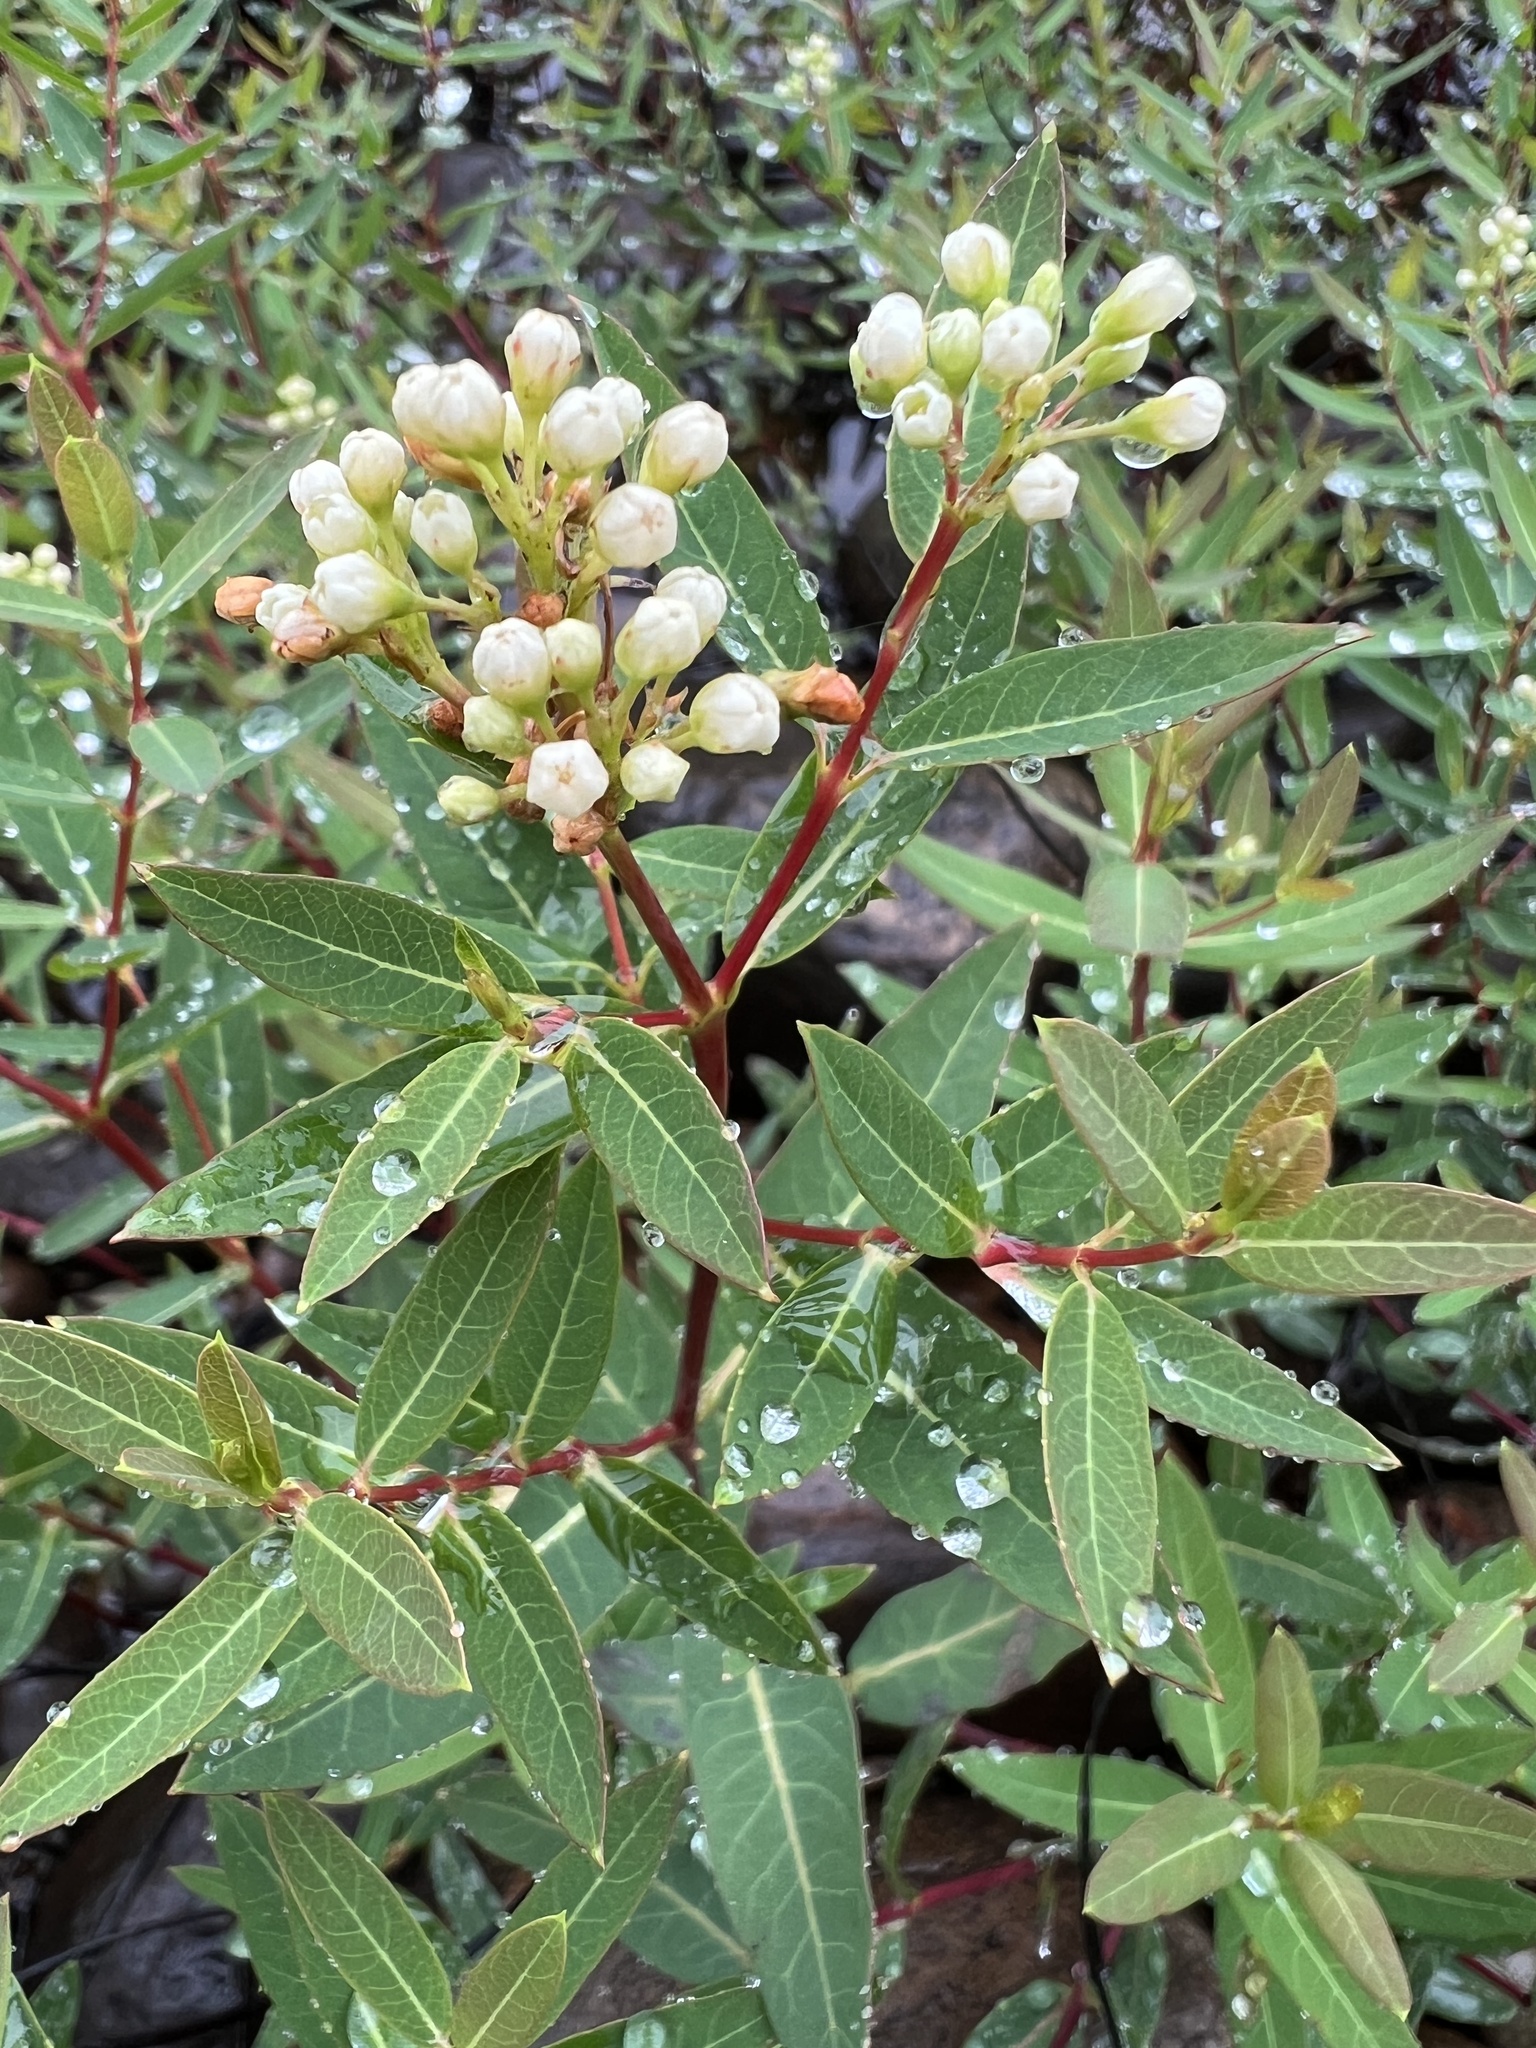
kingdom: Plantae
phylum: Tracheophyta
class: Magnoliopsida
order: Gentianales
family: Apocynaceae
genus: Apocynum
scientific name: Apocynum cannabinum
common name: Hemp dogbane
